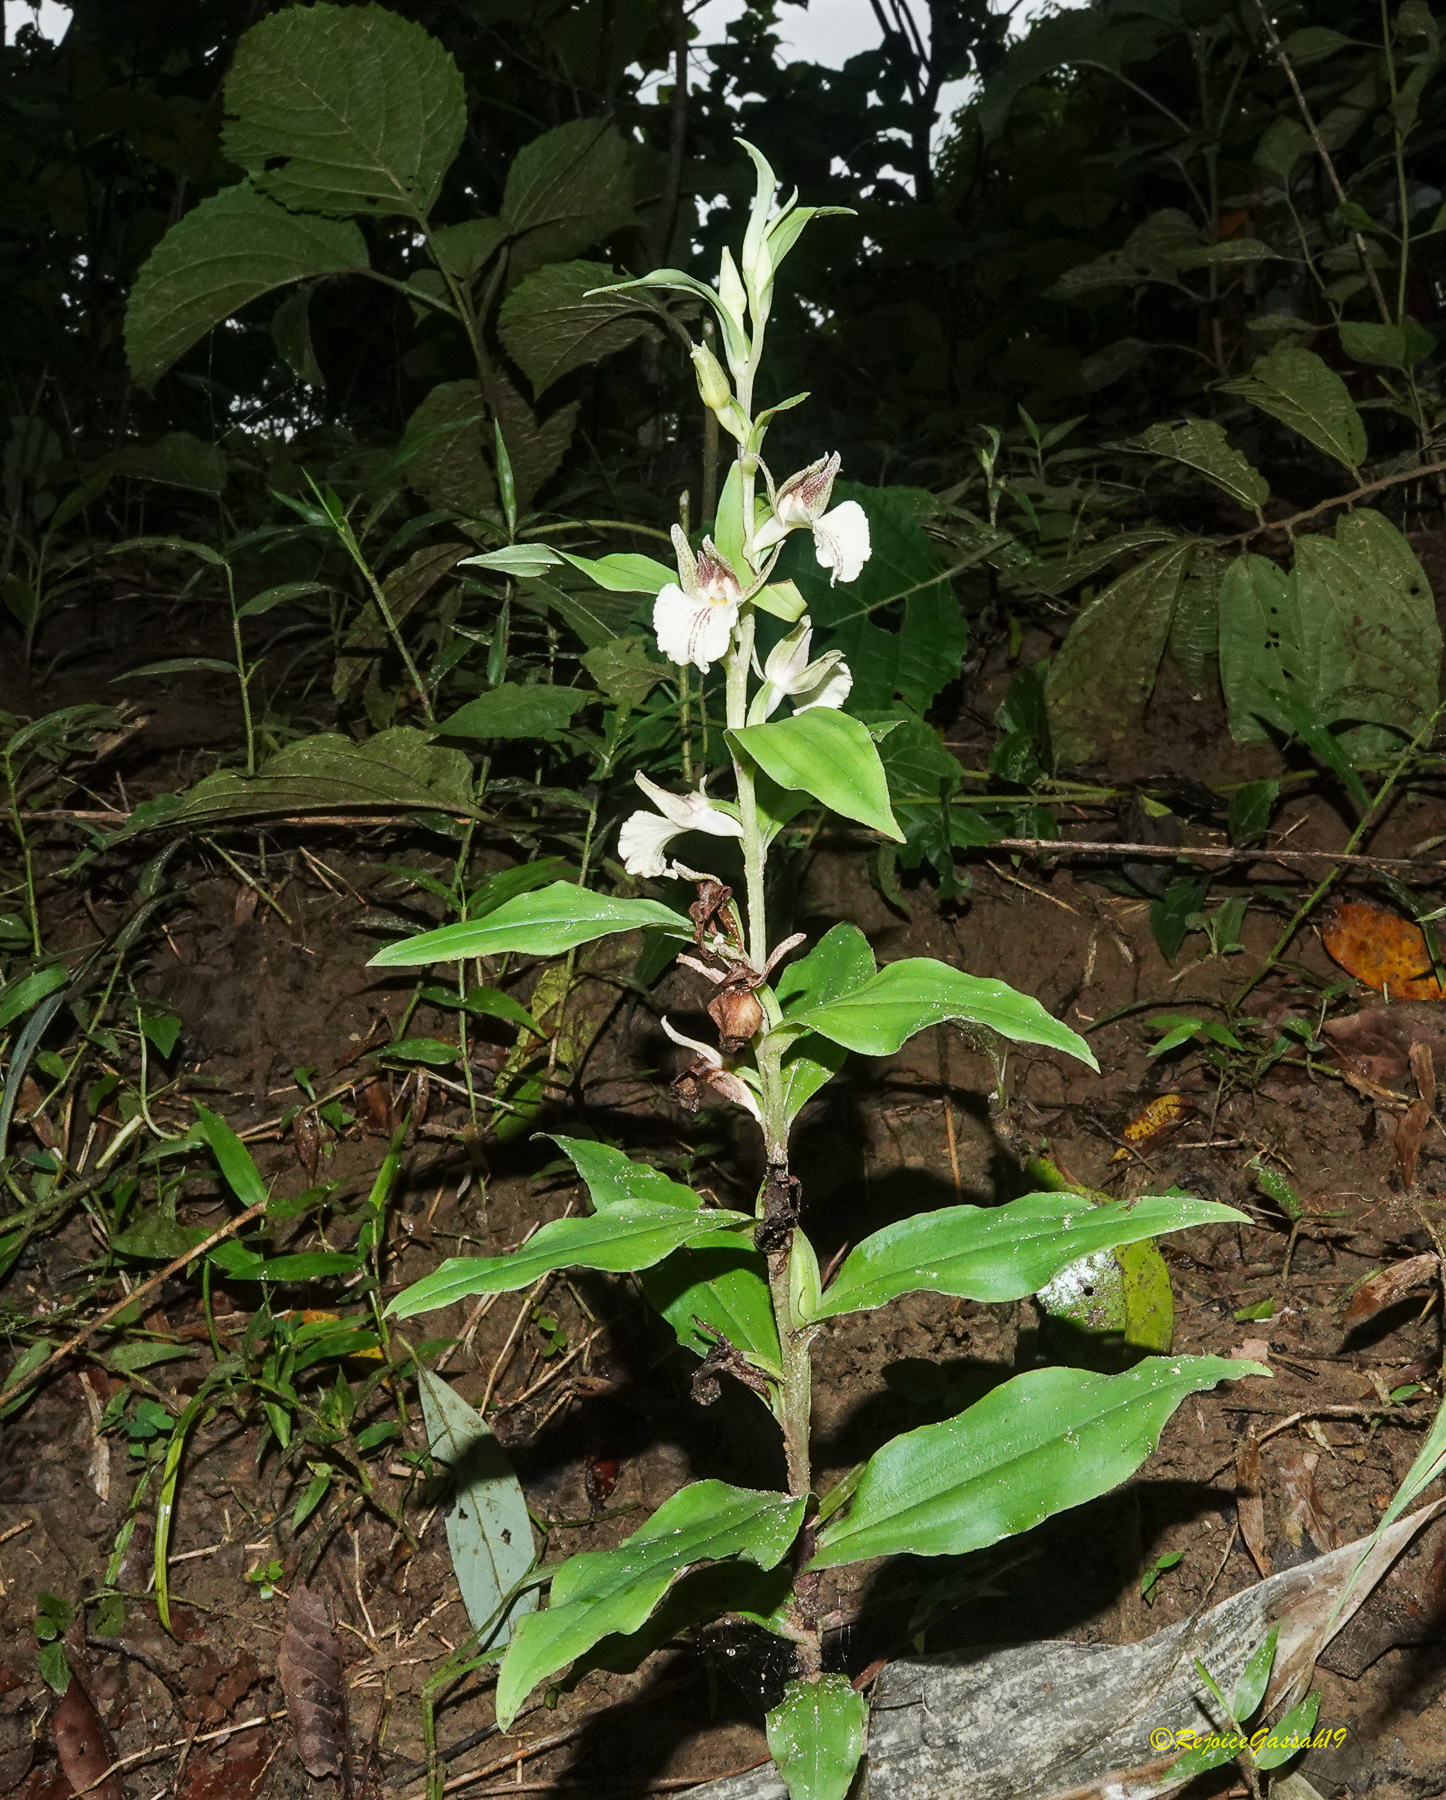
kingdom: Plantae
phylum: Tracheophyta
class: Liliopsida
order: Asparagales
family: Orchidaceae
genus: Brachycorythis
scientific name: Brachycorythis helferi
